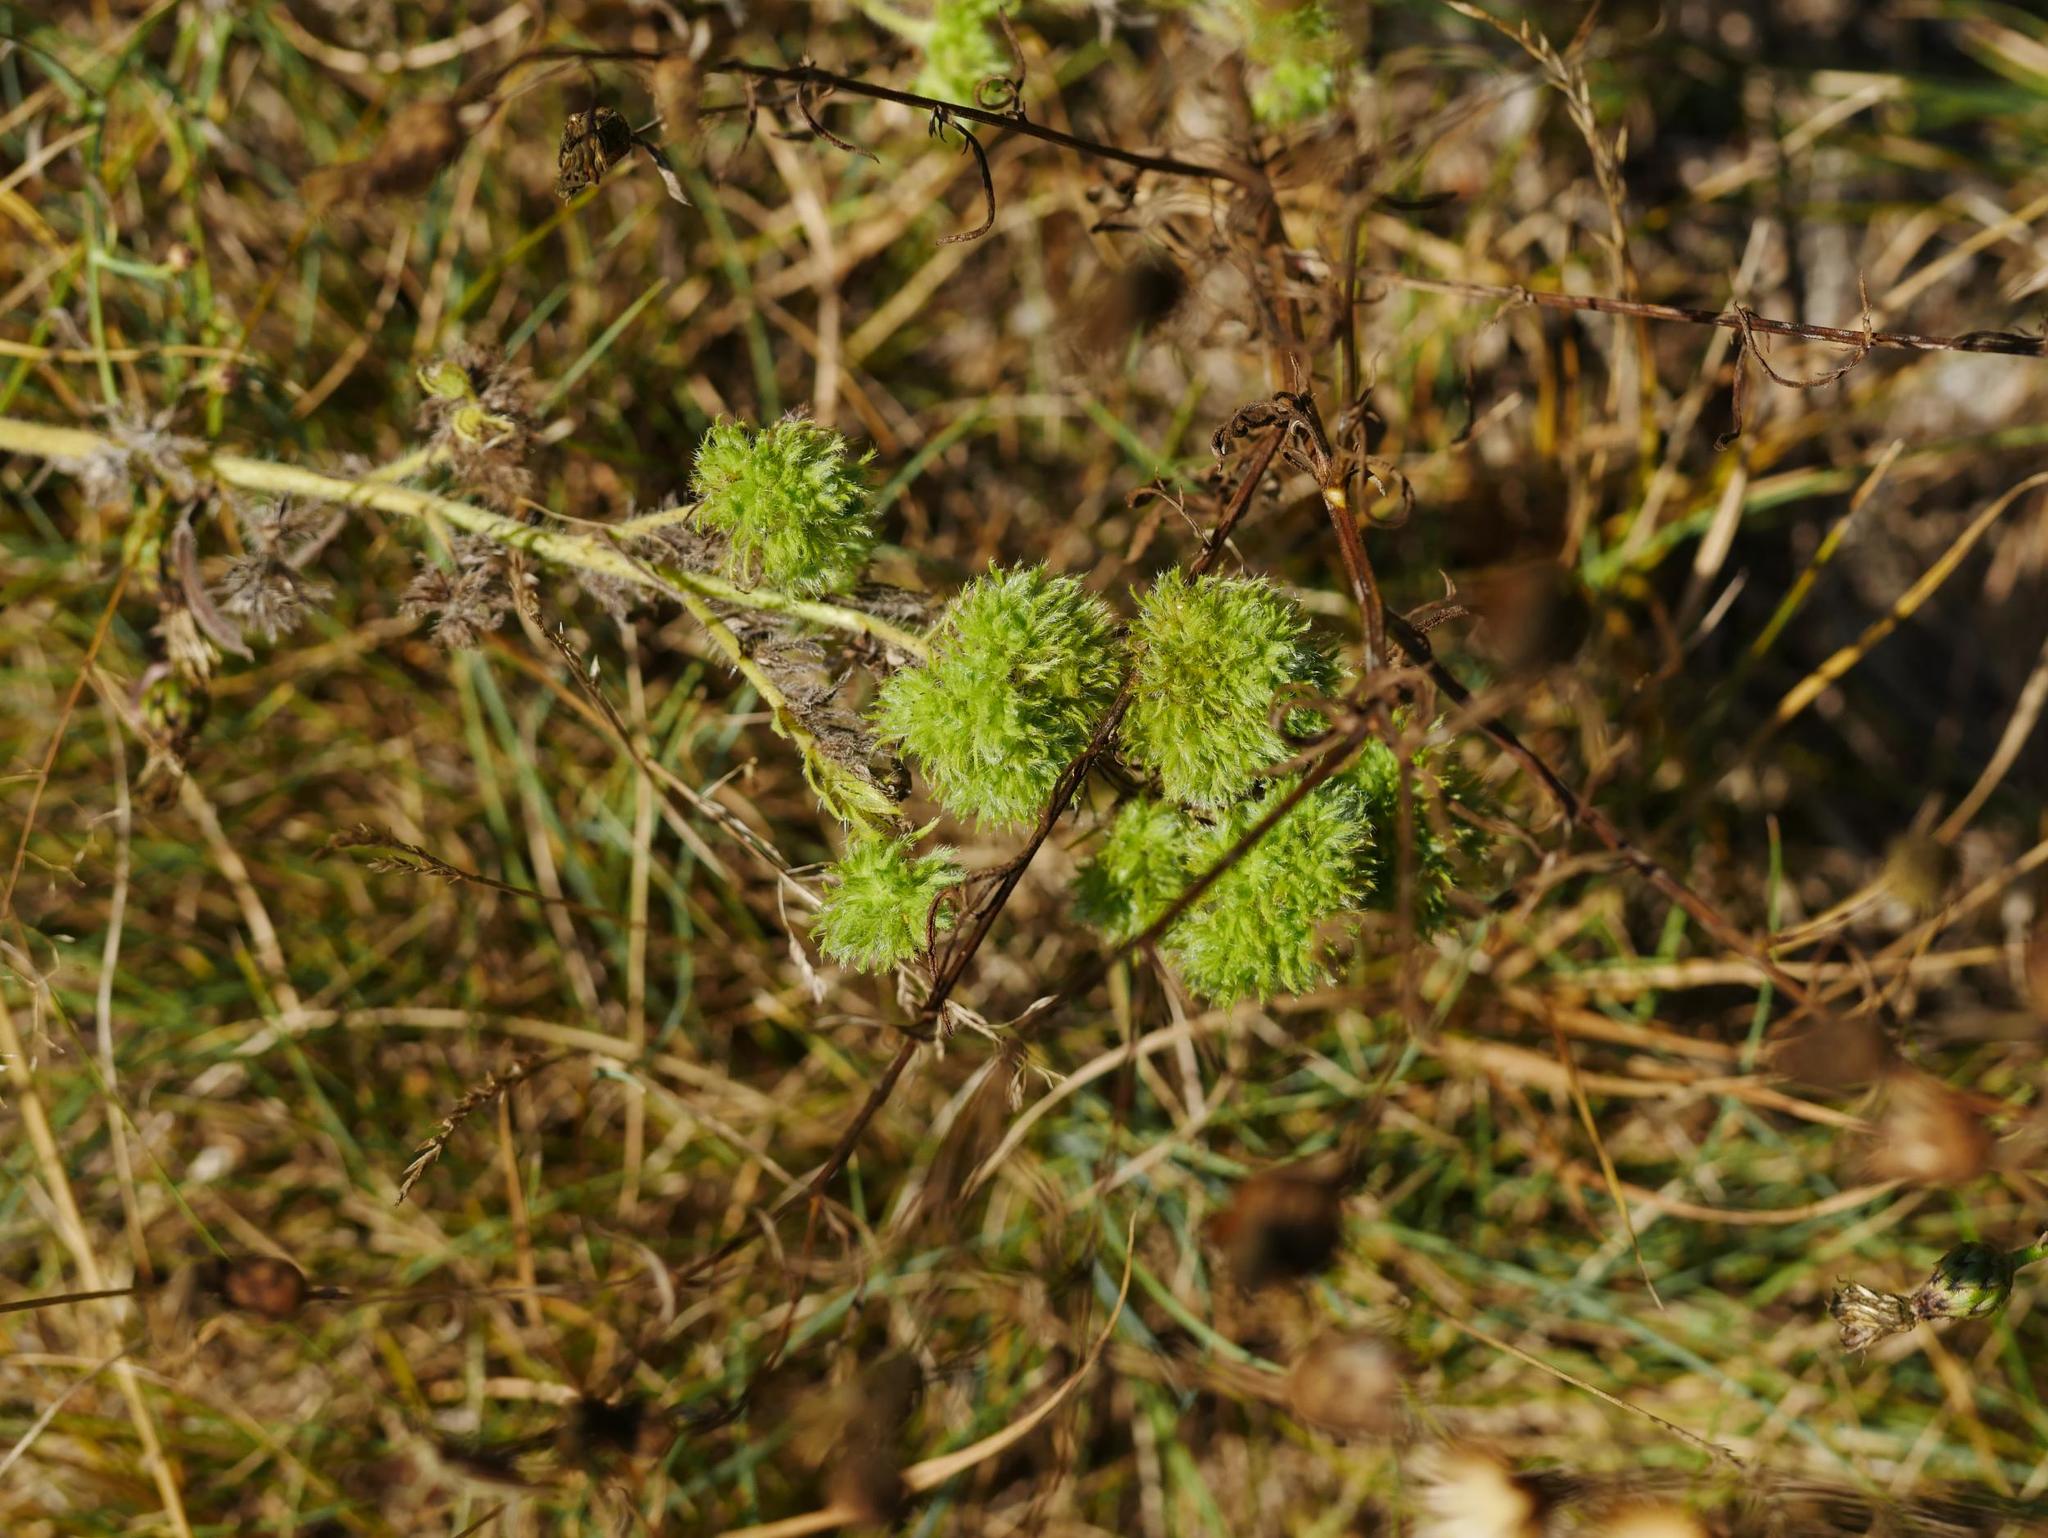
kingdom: Animalia
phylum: Arthropoda
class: Arachnida
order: Trombidiformes
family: Eriophyidae
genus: Aceria
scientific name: Aceria echii
